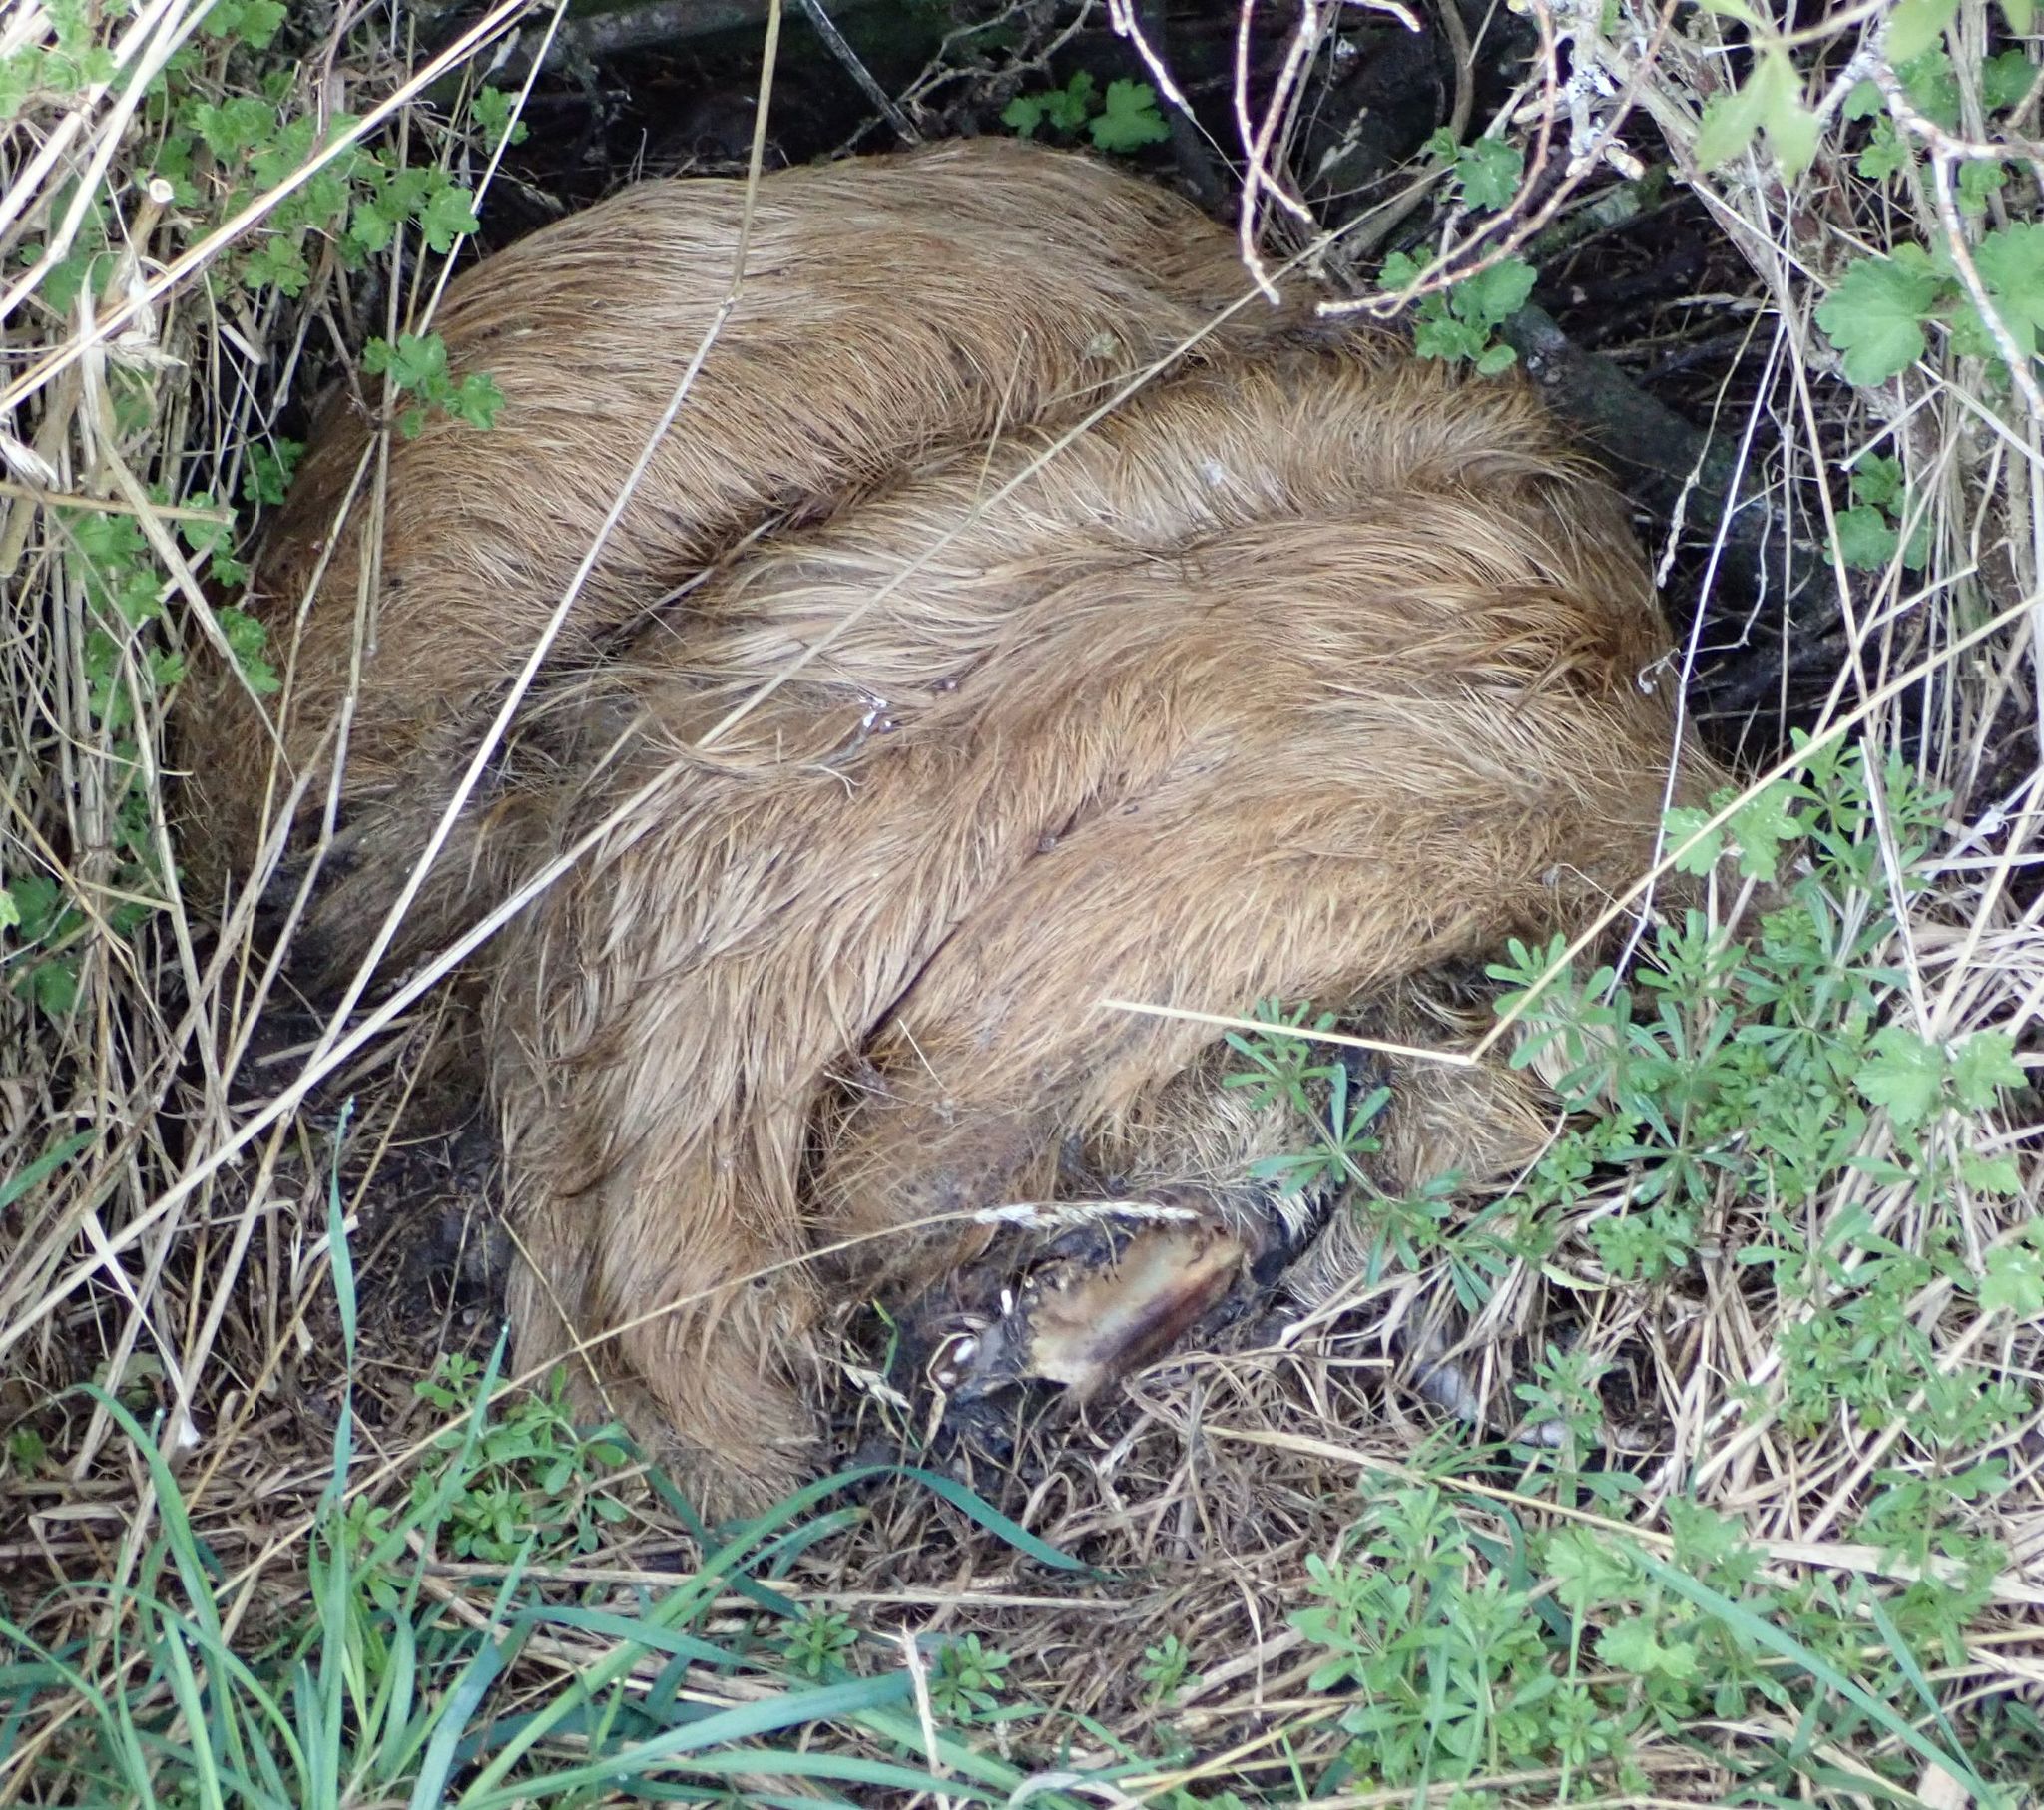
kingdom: Animalia
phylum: Chordata
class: Mammalia
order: Artiodactyla
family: Suidae
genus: Sus
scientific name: Sus scrofa
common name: Wild boar
